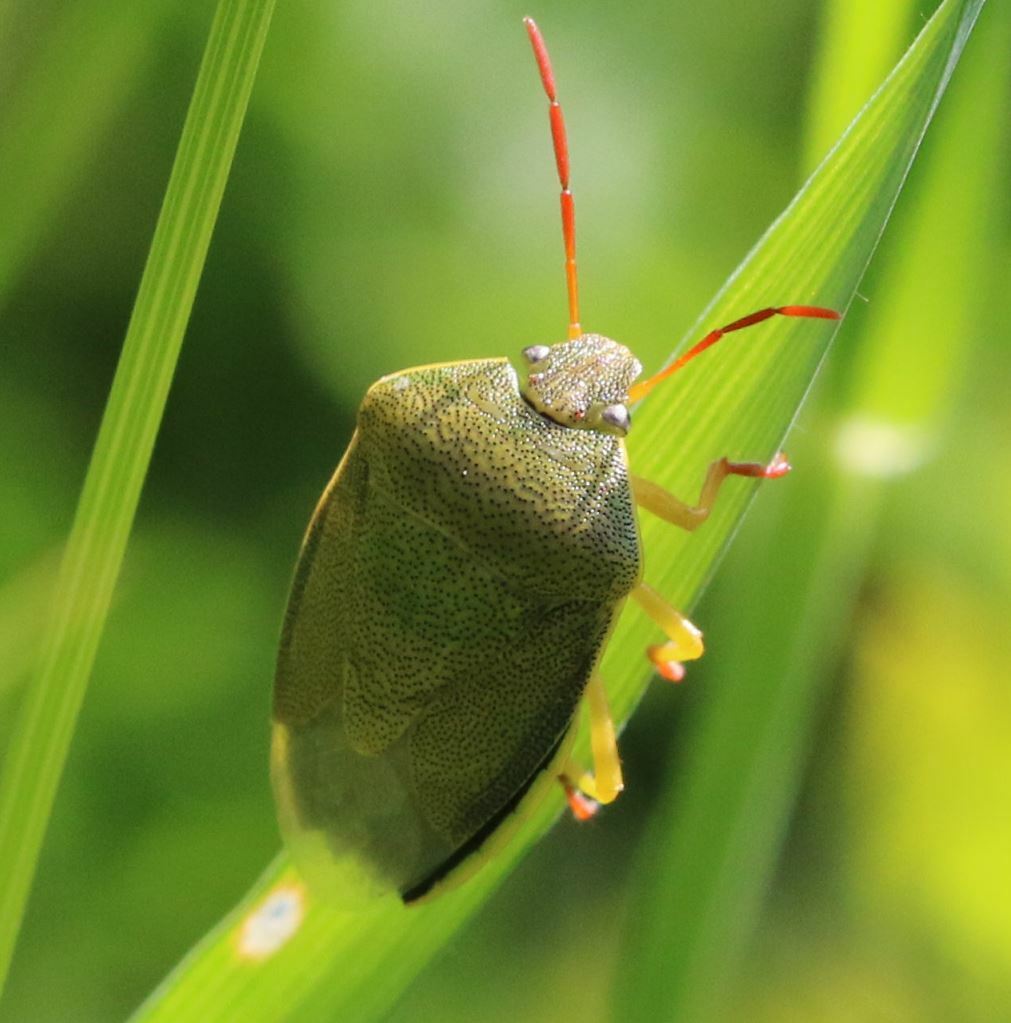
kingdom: Animalia
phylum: Arthropoda
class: Insecta
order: Hemiptera
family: Pentatomidae
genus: Piezodorus
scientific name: Piezodorus lituratus
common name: Stink bug
